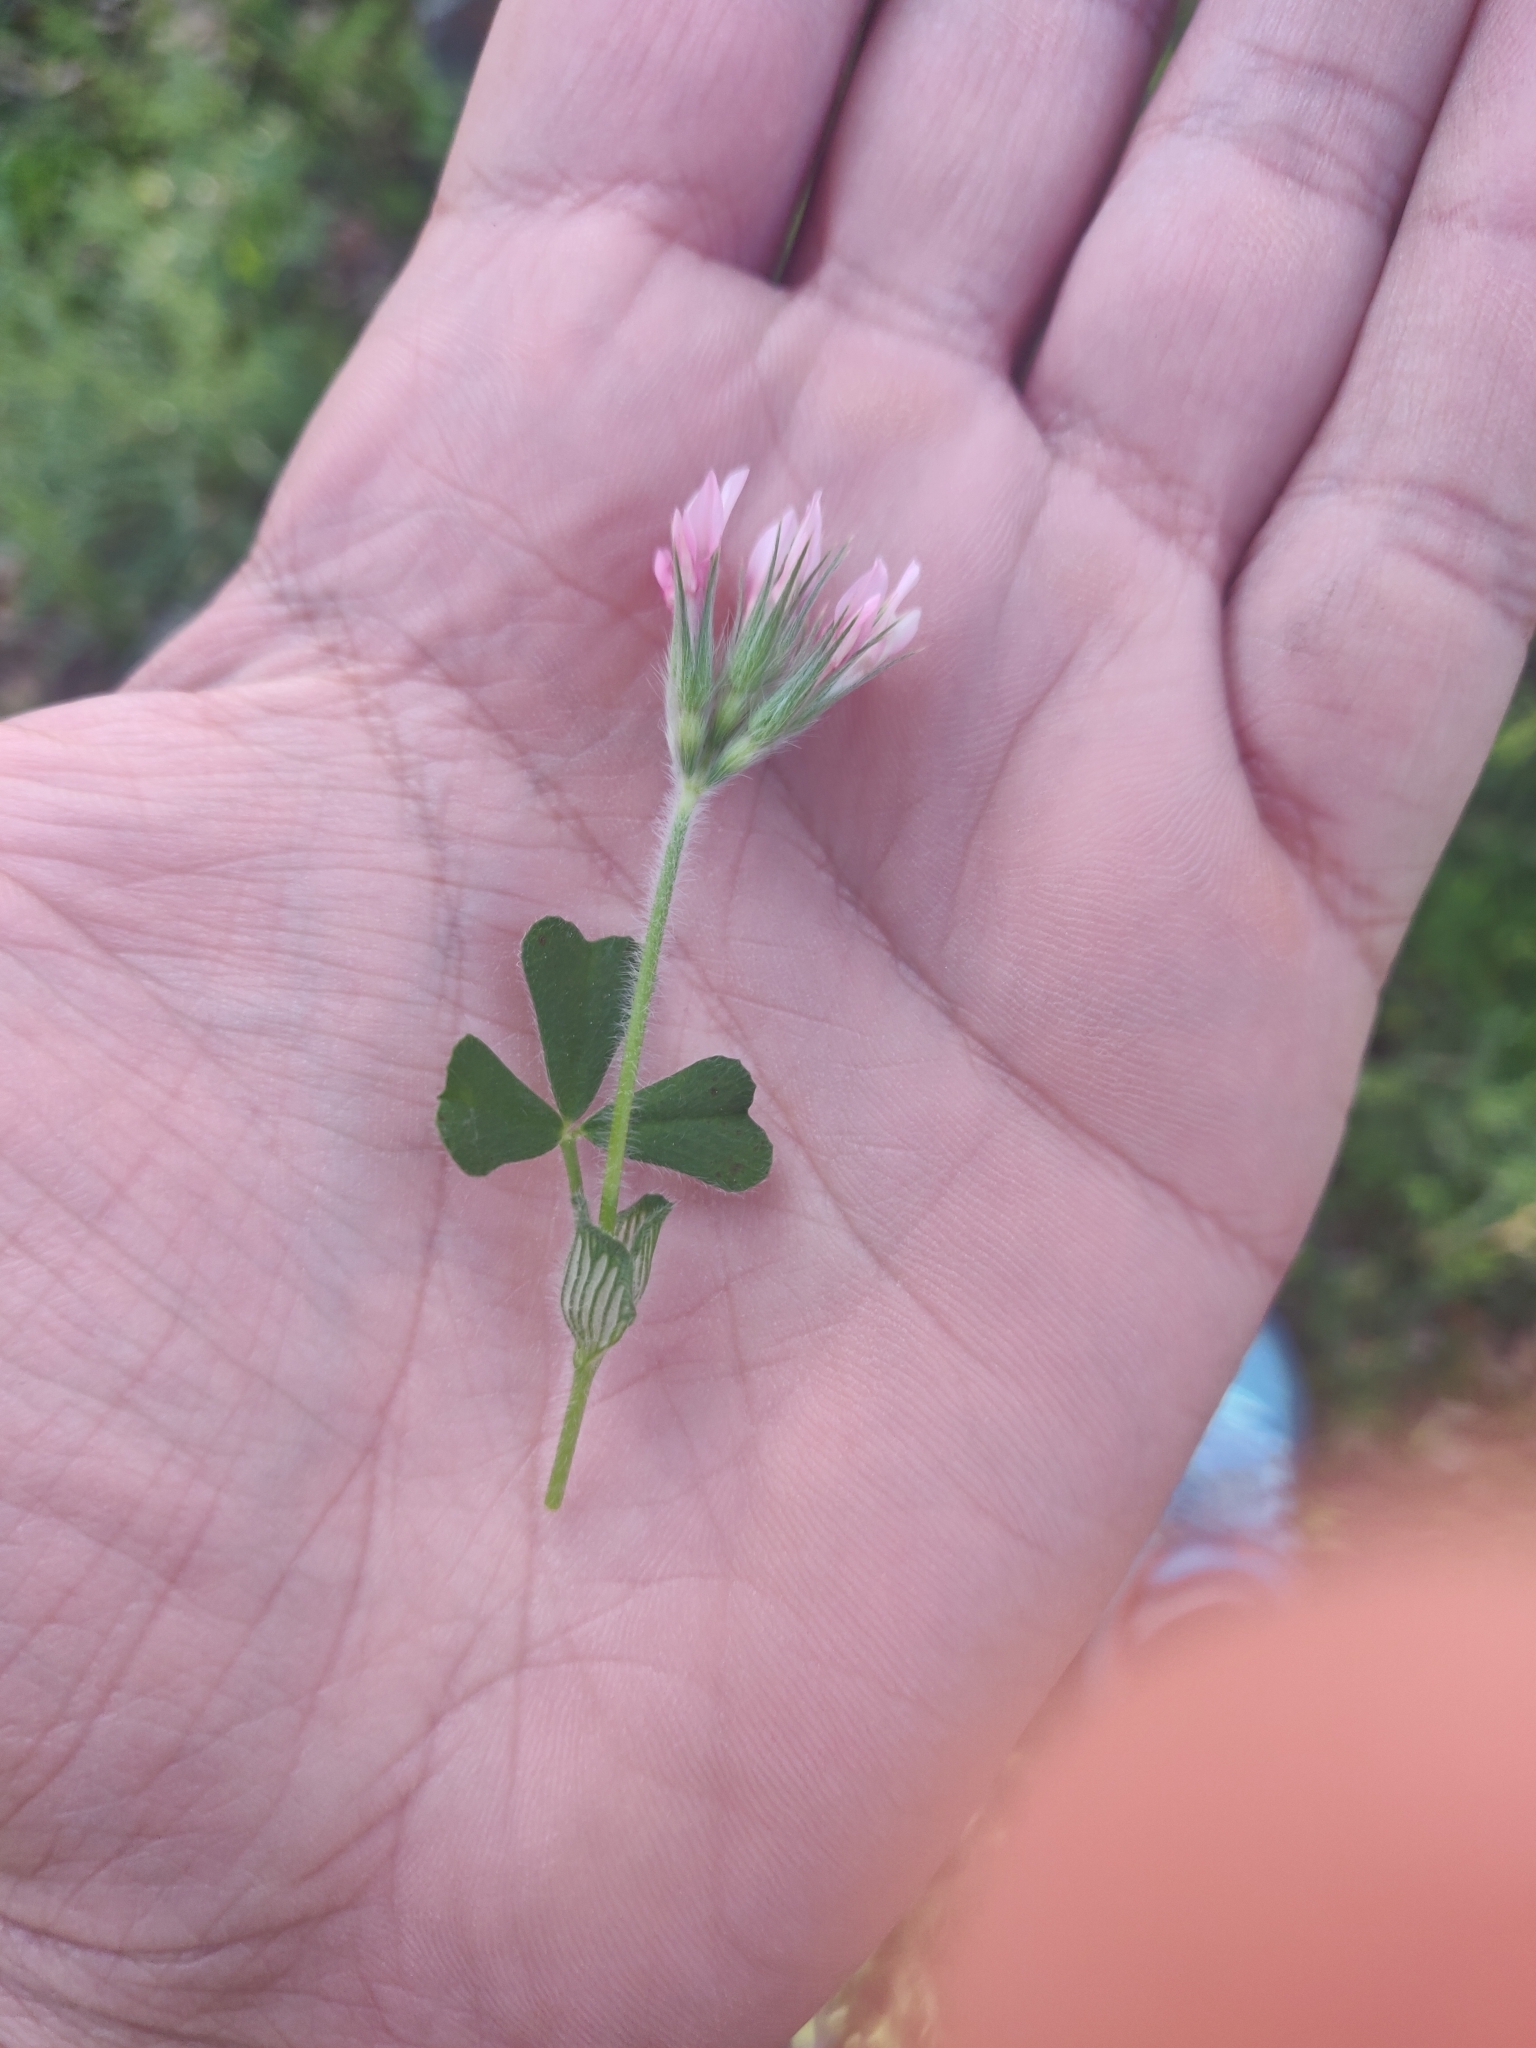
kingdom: Plantae
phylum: Tracheophyta
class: Magnoliopsida
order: Fabales
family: Fabaceae
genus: Trifolium
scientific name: Trifolium stellatum
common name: Starry clover
